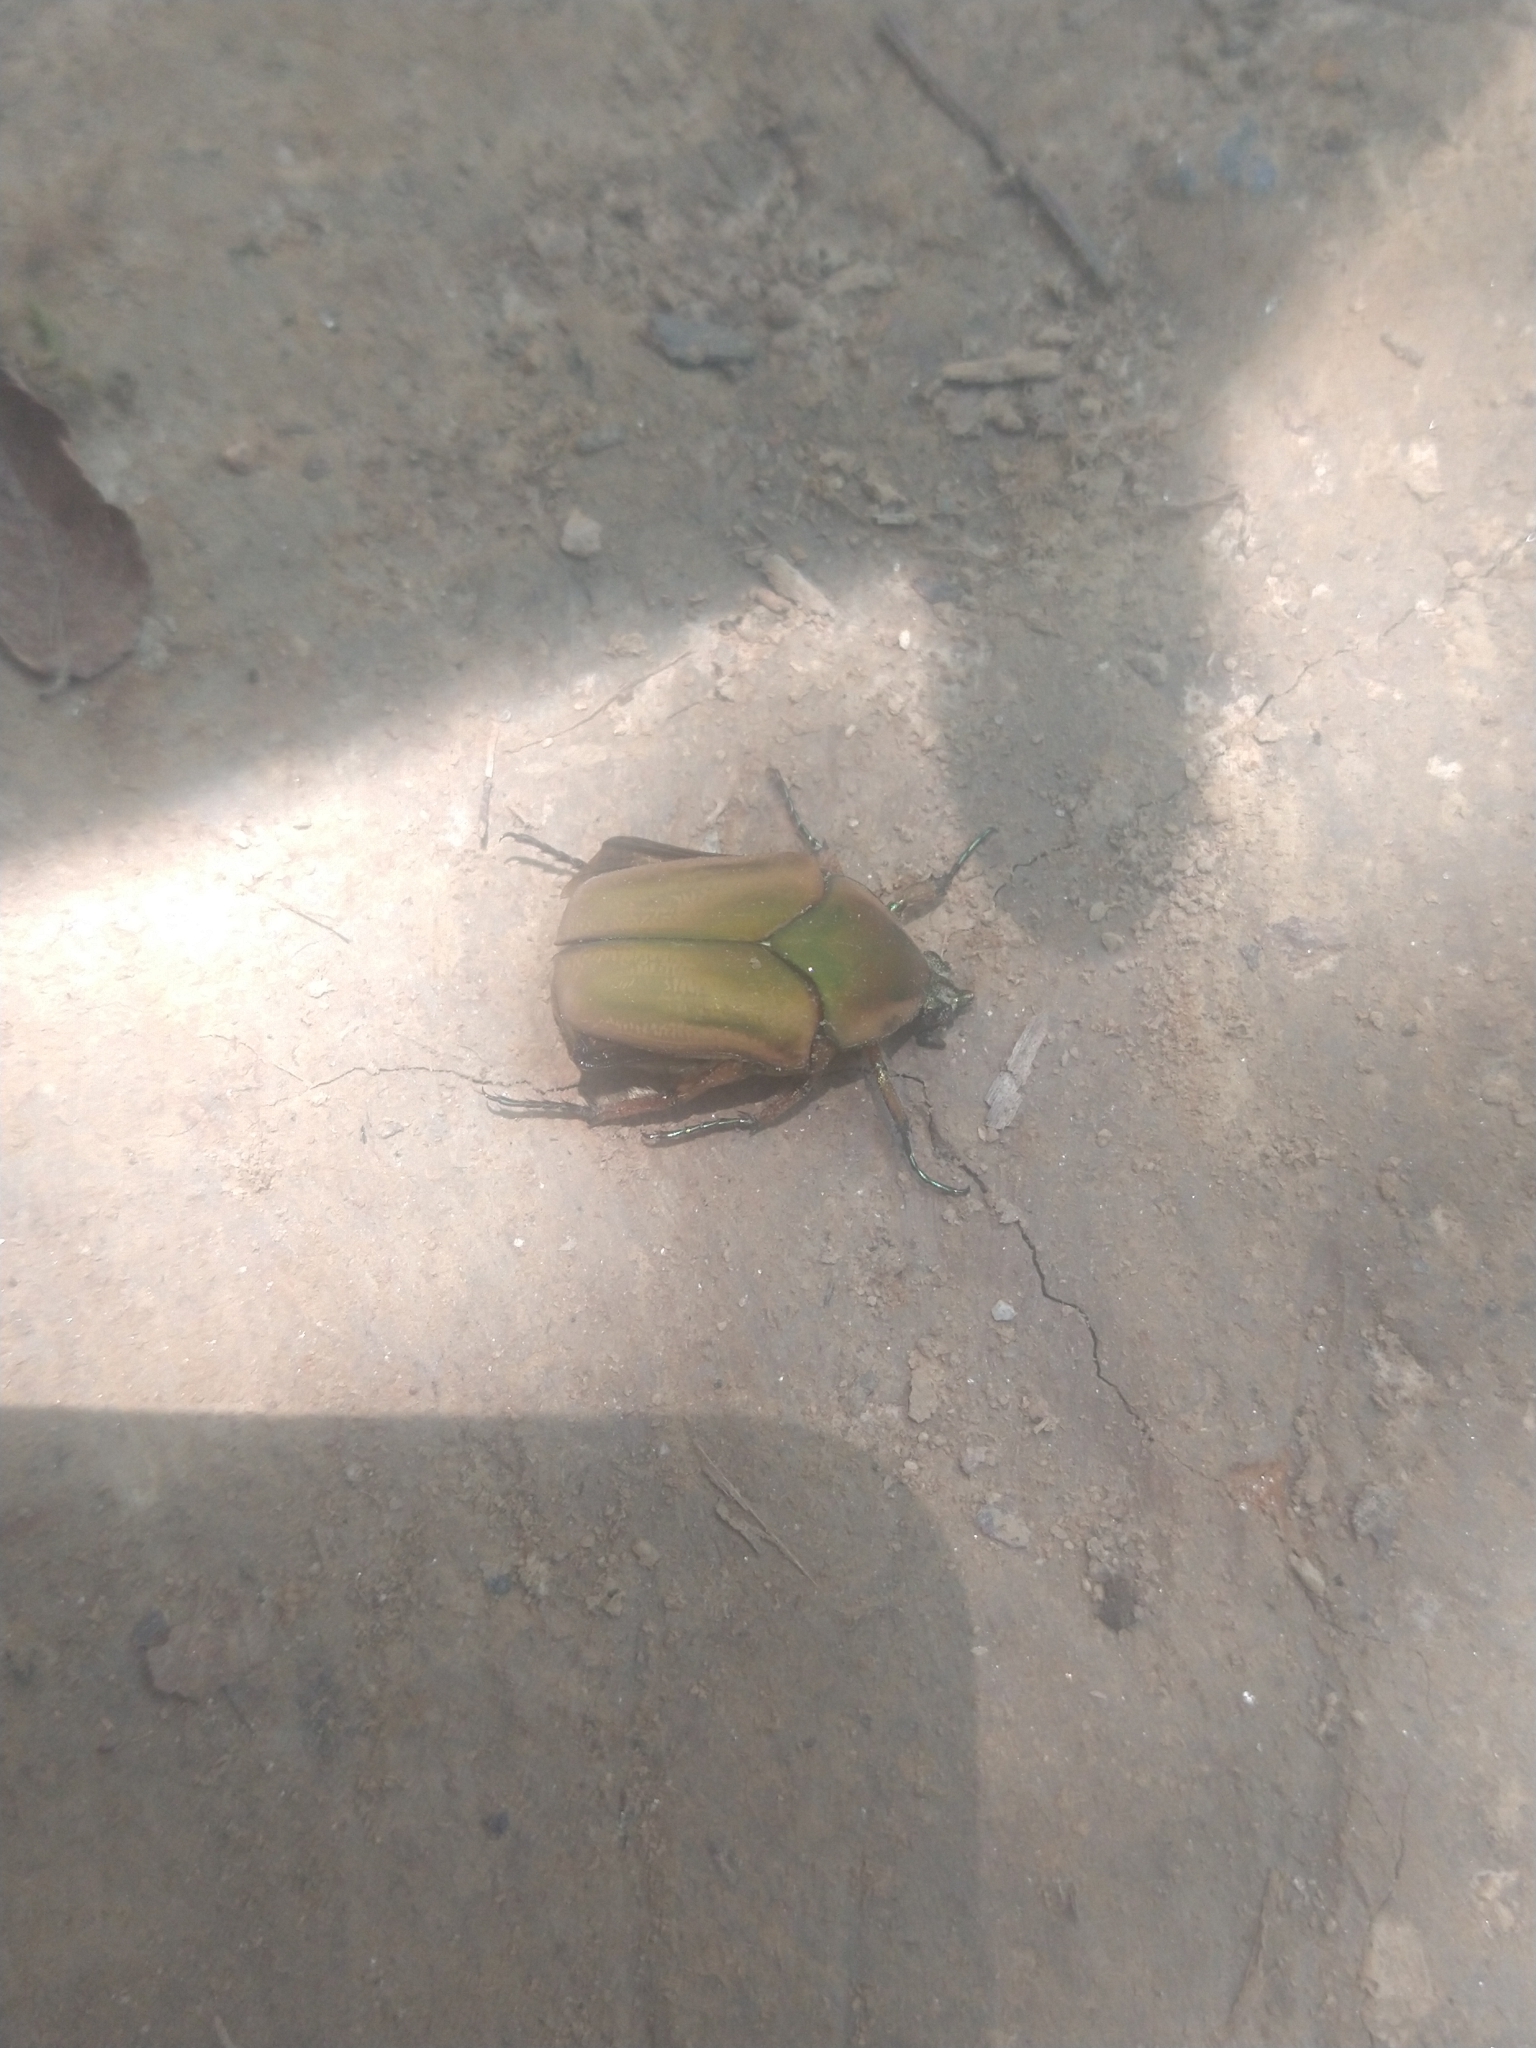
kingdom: Animalia
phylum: Arthropoda
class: Insecta
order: Coleoptera
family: Scarabaeidae
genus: Cotinis
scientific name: Cotinis nitida
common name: Common green june beetle
